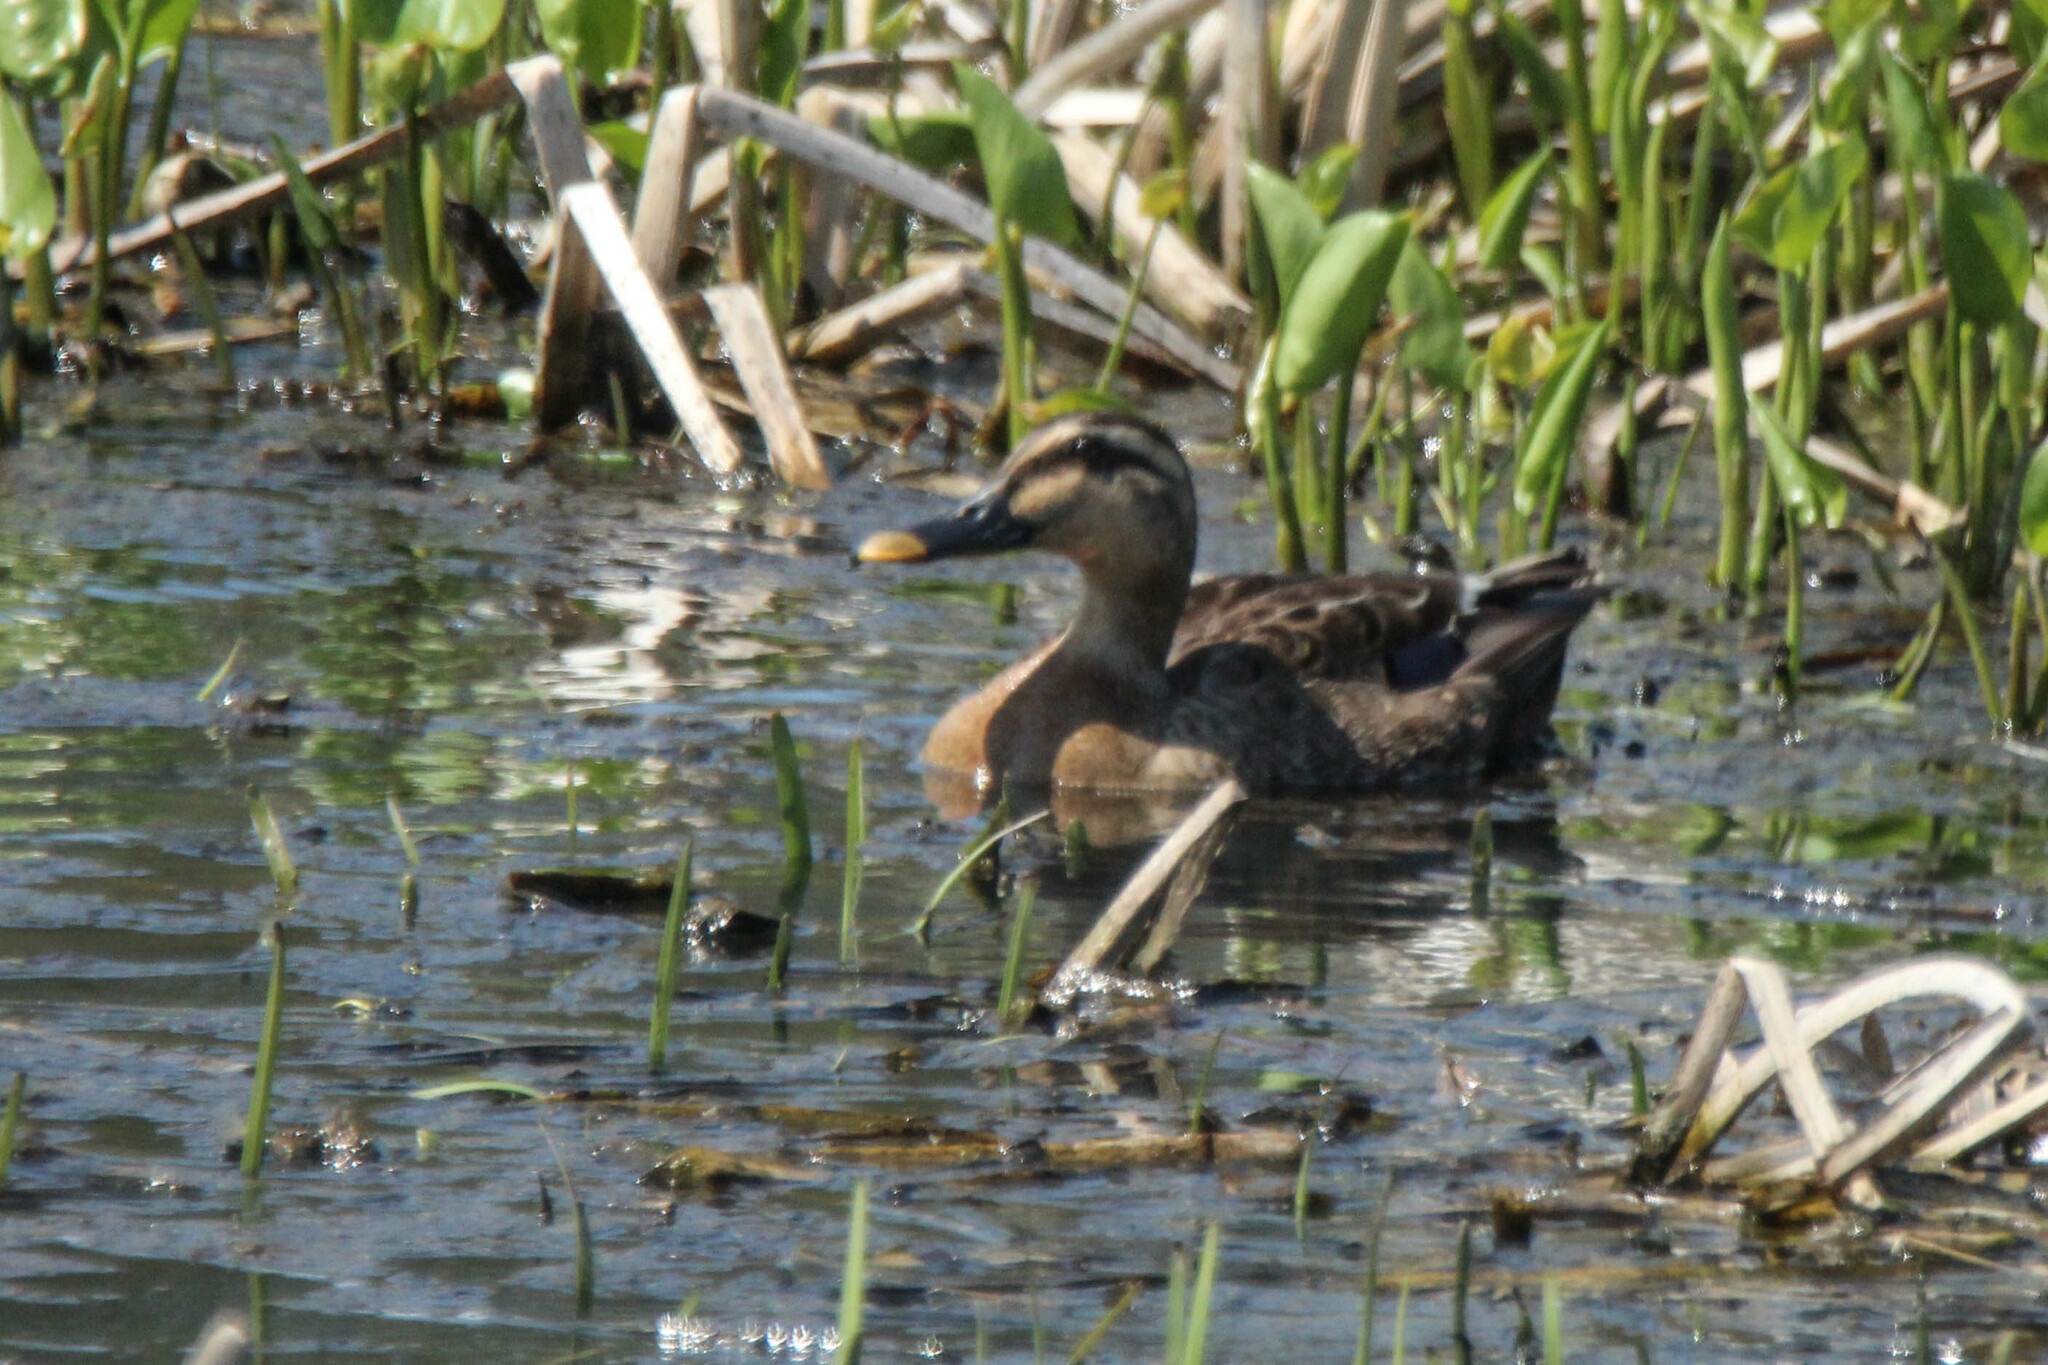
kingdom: Animalia
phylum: Chordata
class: Aves
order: Anseriformes
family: Anatidae
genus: Anas
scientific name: Anas zonorhyncha
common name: Eastern spot-billed duck
